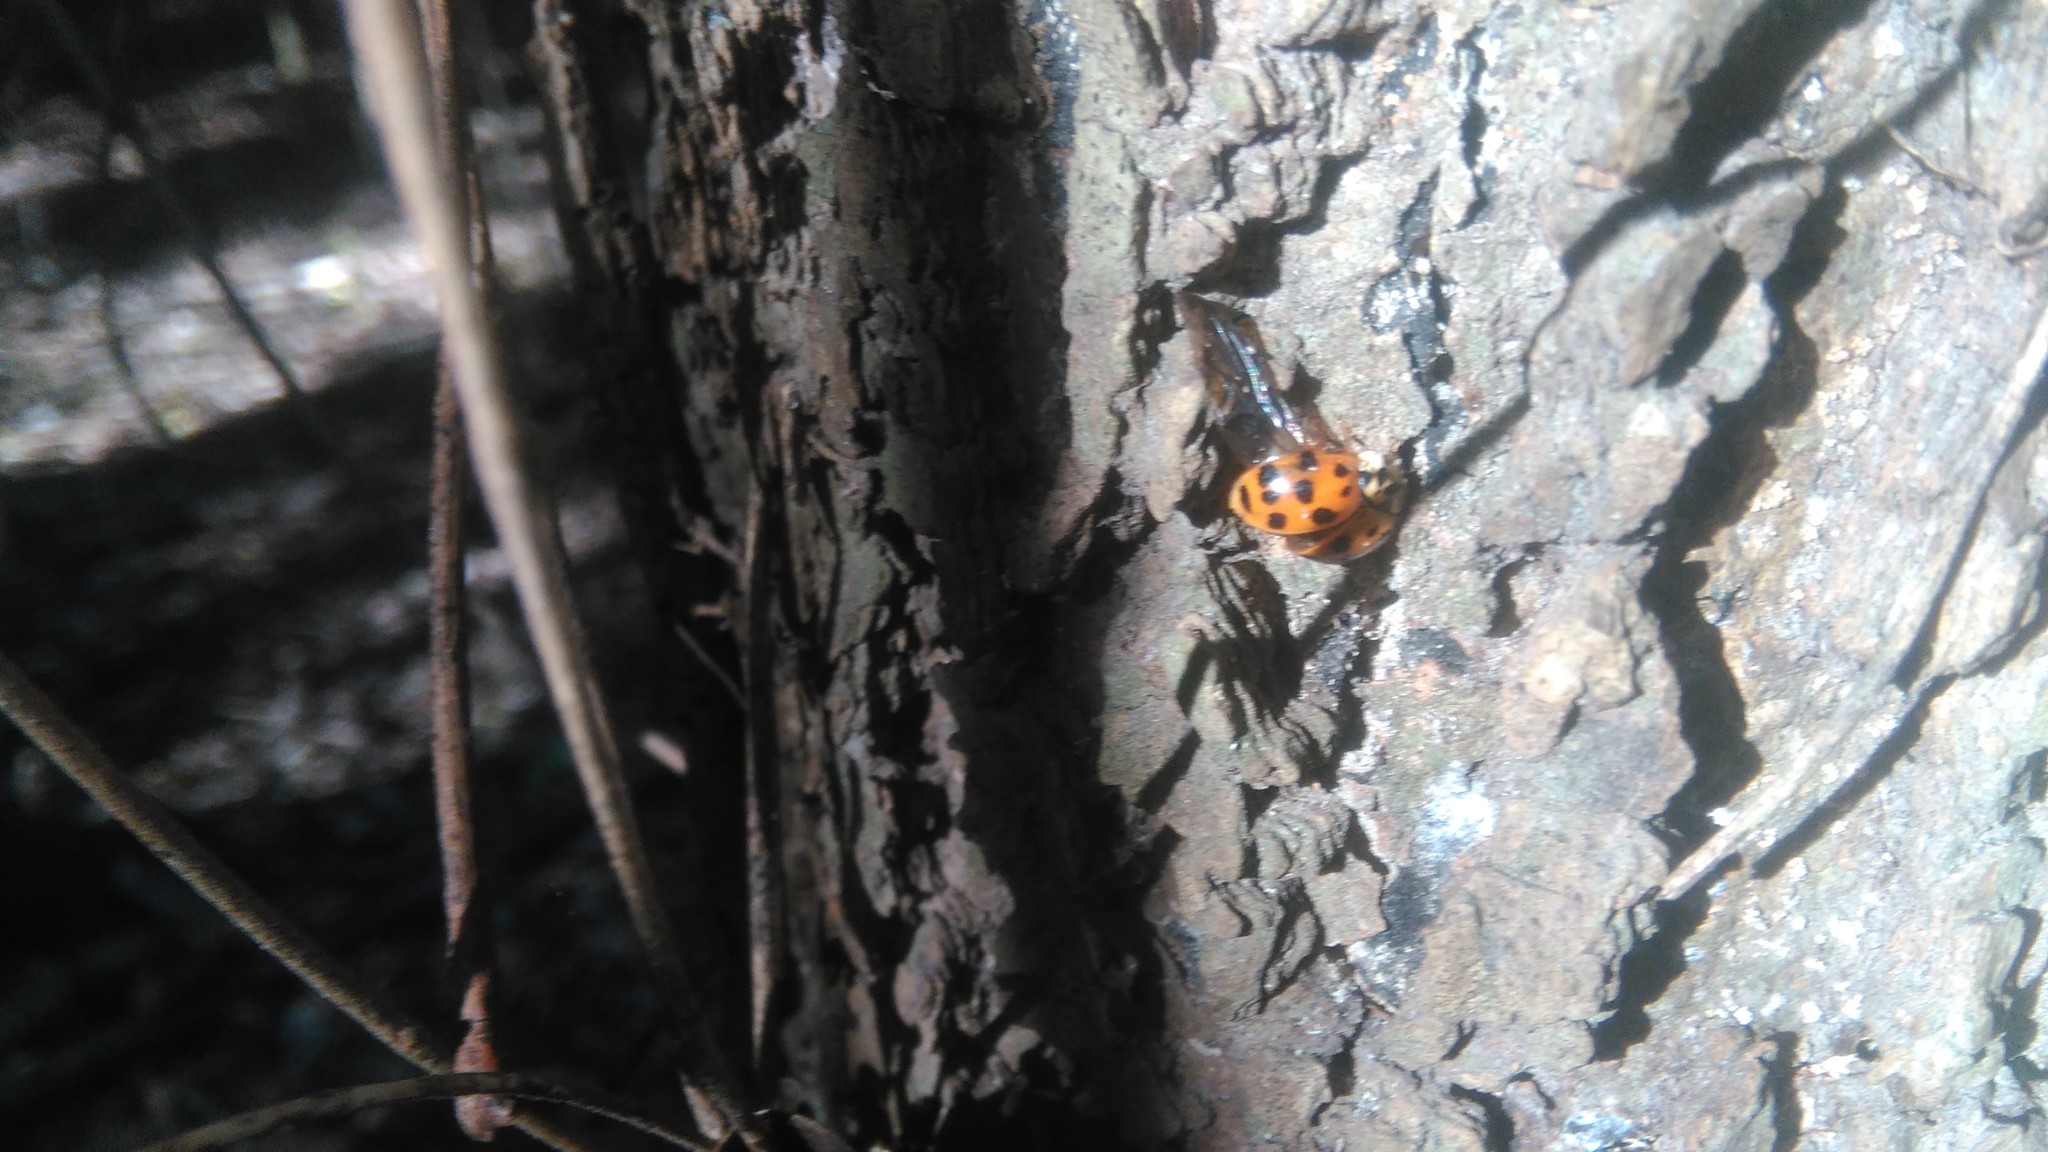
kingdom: Animalia
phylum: Arthropoda
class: Insecta
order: Coleoptera
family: Coccinellidae
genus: Harmonia
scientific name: Harmonia axyridis
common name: Harlequin ladybird
